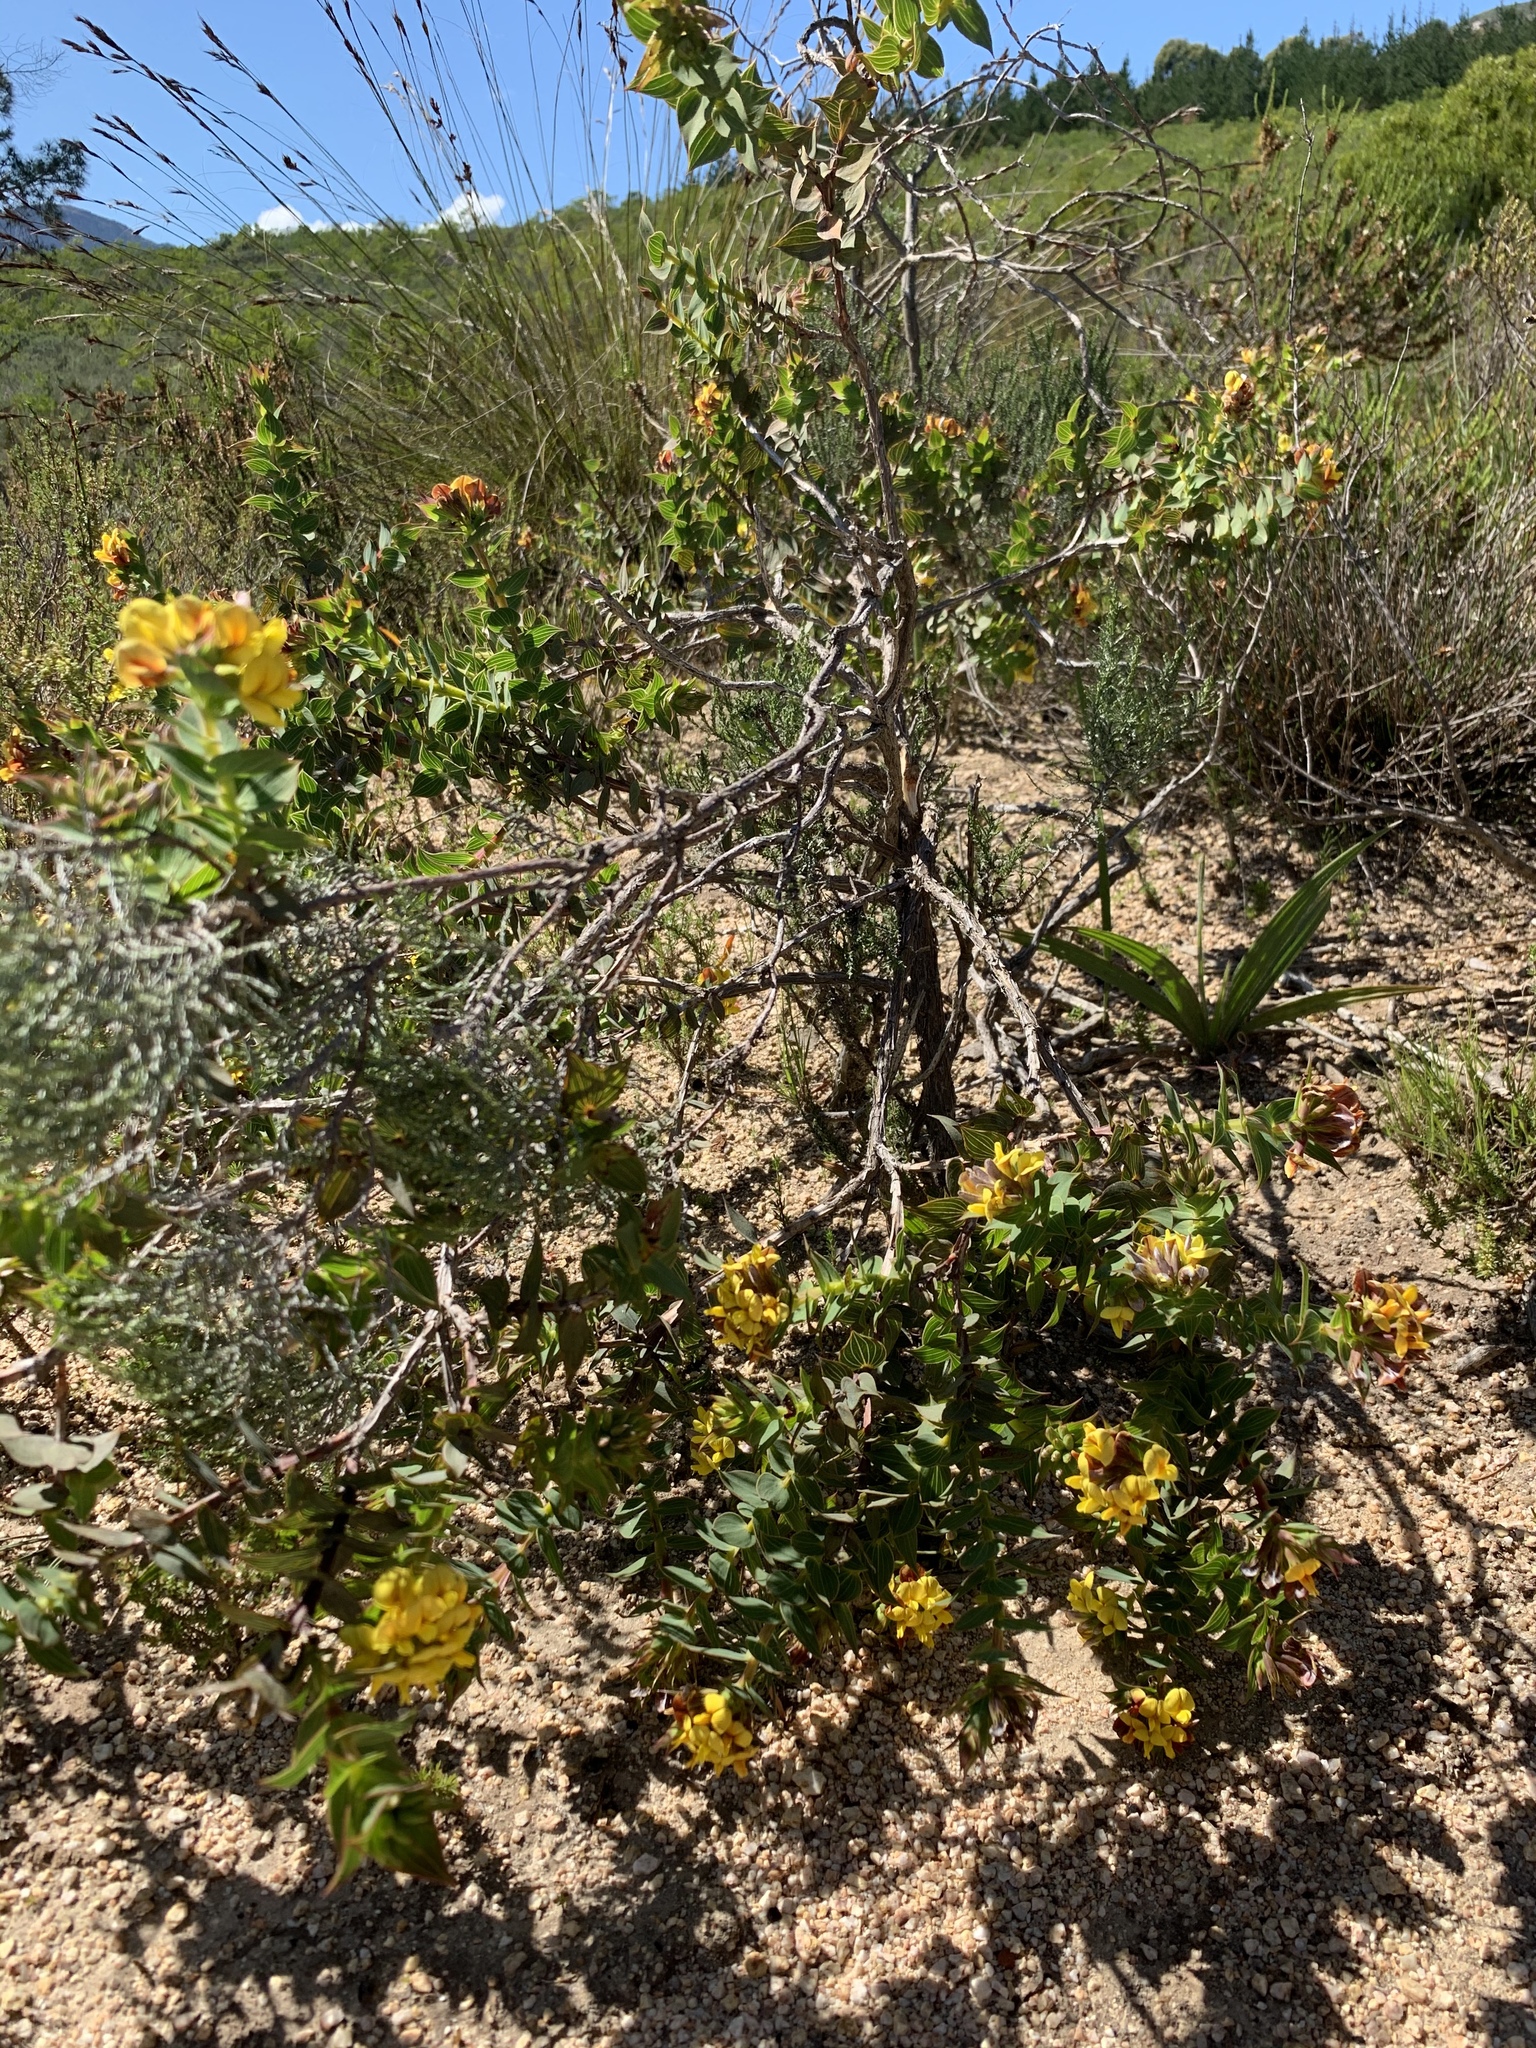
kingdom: Plantae
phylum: Tracheophyta
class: Magnoliopsida
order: Fabales
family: Fabaceae
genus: Aspalathus
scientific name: Aspalathus cordata
